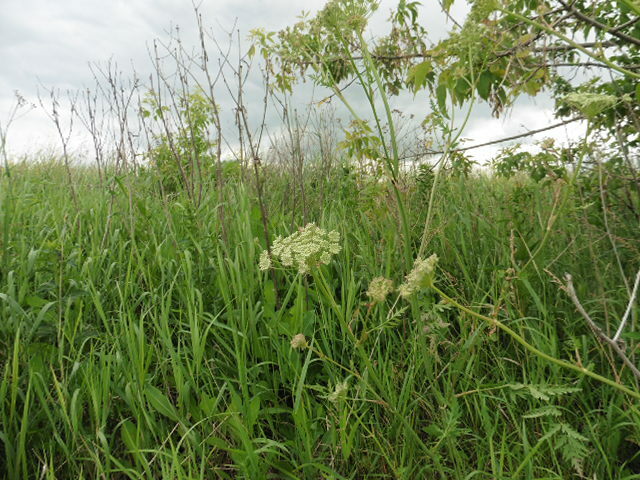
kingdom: Plantae
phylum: Tracheophyta
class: Magnoliopsida
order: Apiales
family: Apiaceae
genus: Seseli
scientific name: Seseli libanotis
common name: Mooncarrot
